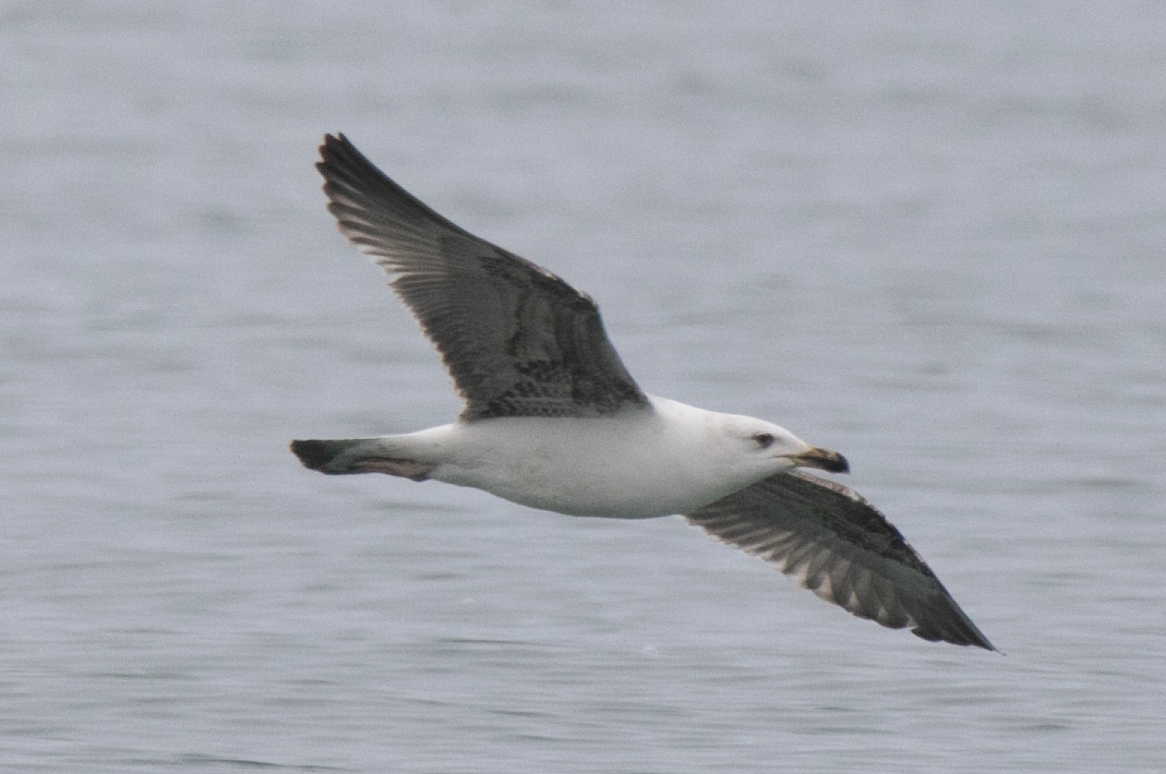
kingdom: Animalia
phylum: Chordata
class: Aves
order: Charadriiformes
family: Laridae
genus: Larus
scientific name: Larus michahellis
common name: Yellow-legged gull
